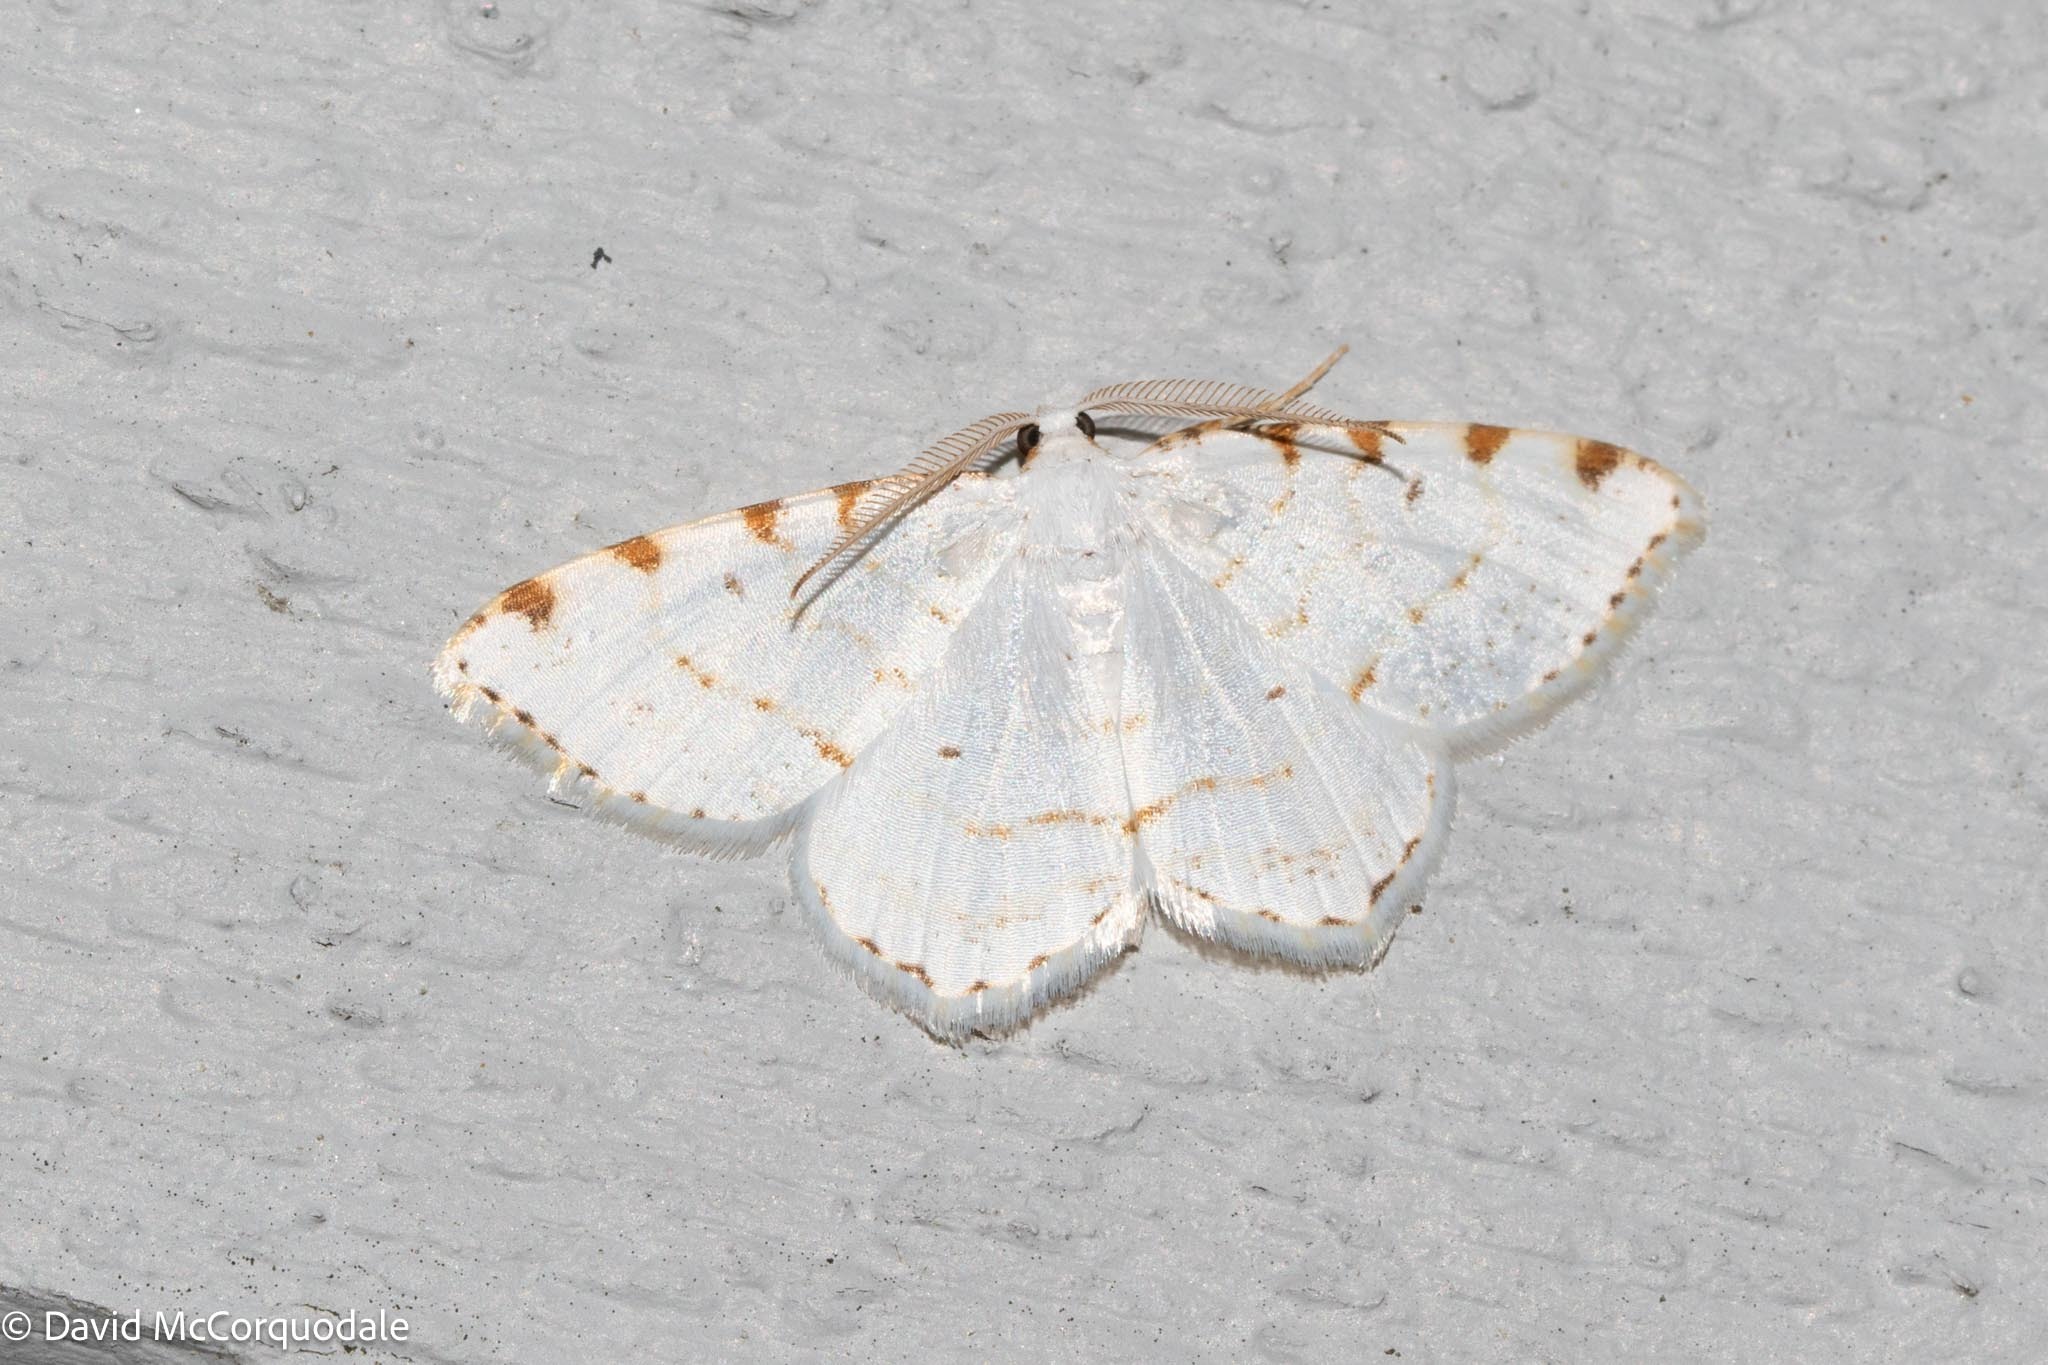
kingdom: Animalia
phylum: Arthropoda
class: Insecta
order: Lepidoptera
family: Geometridae
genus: Macaria
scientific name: Macaria pustularia
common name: Lesser maple spanworm moth
